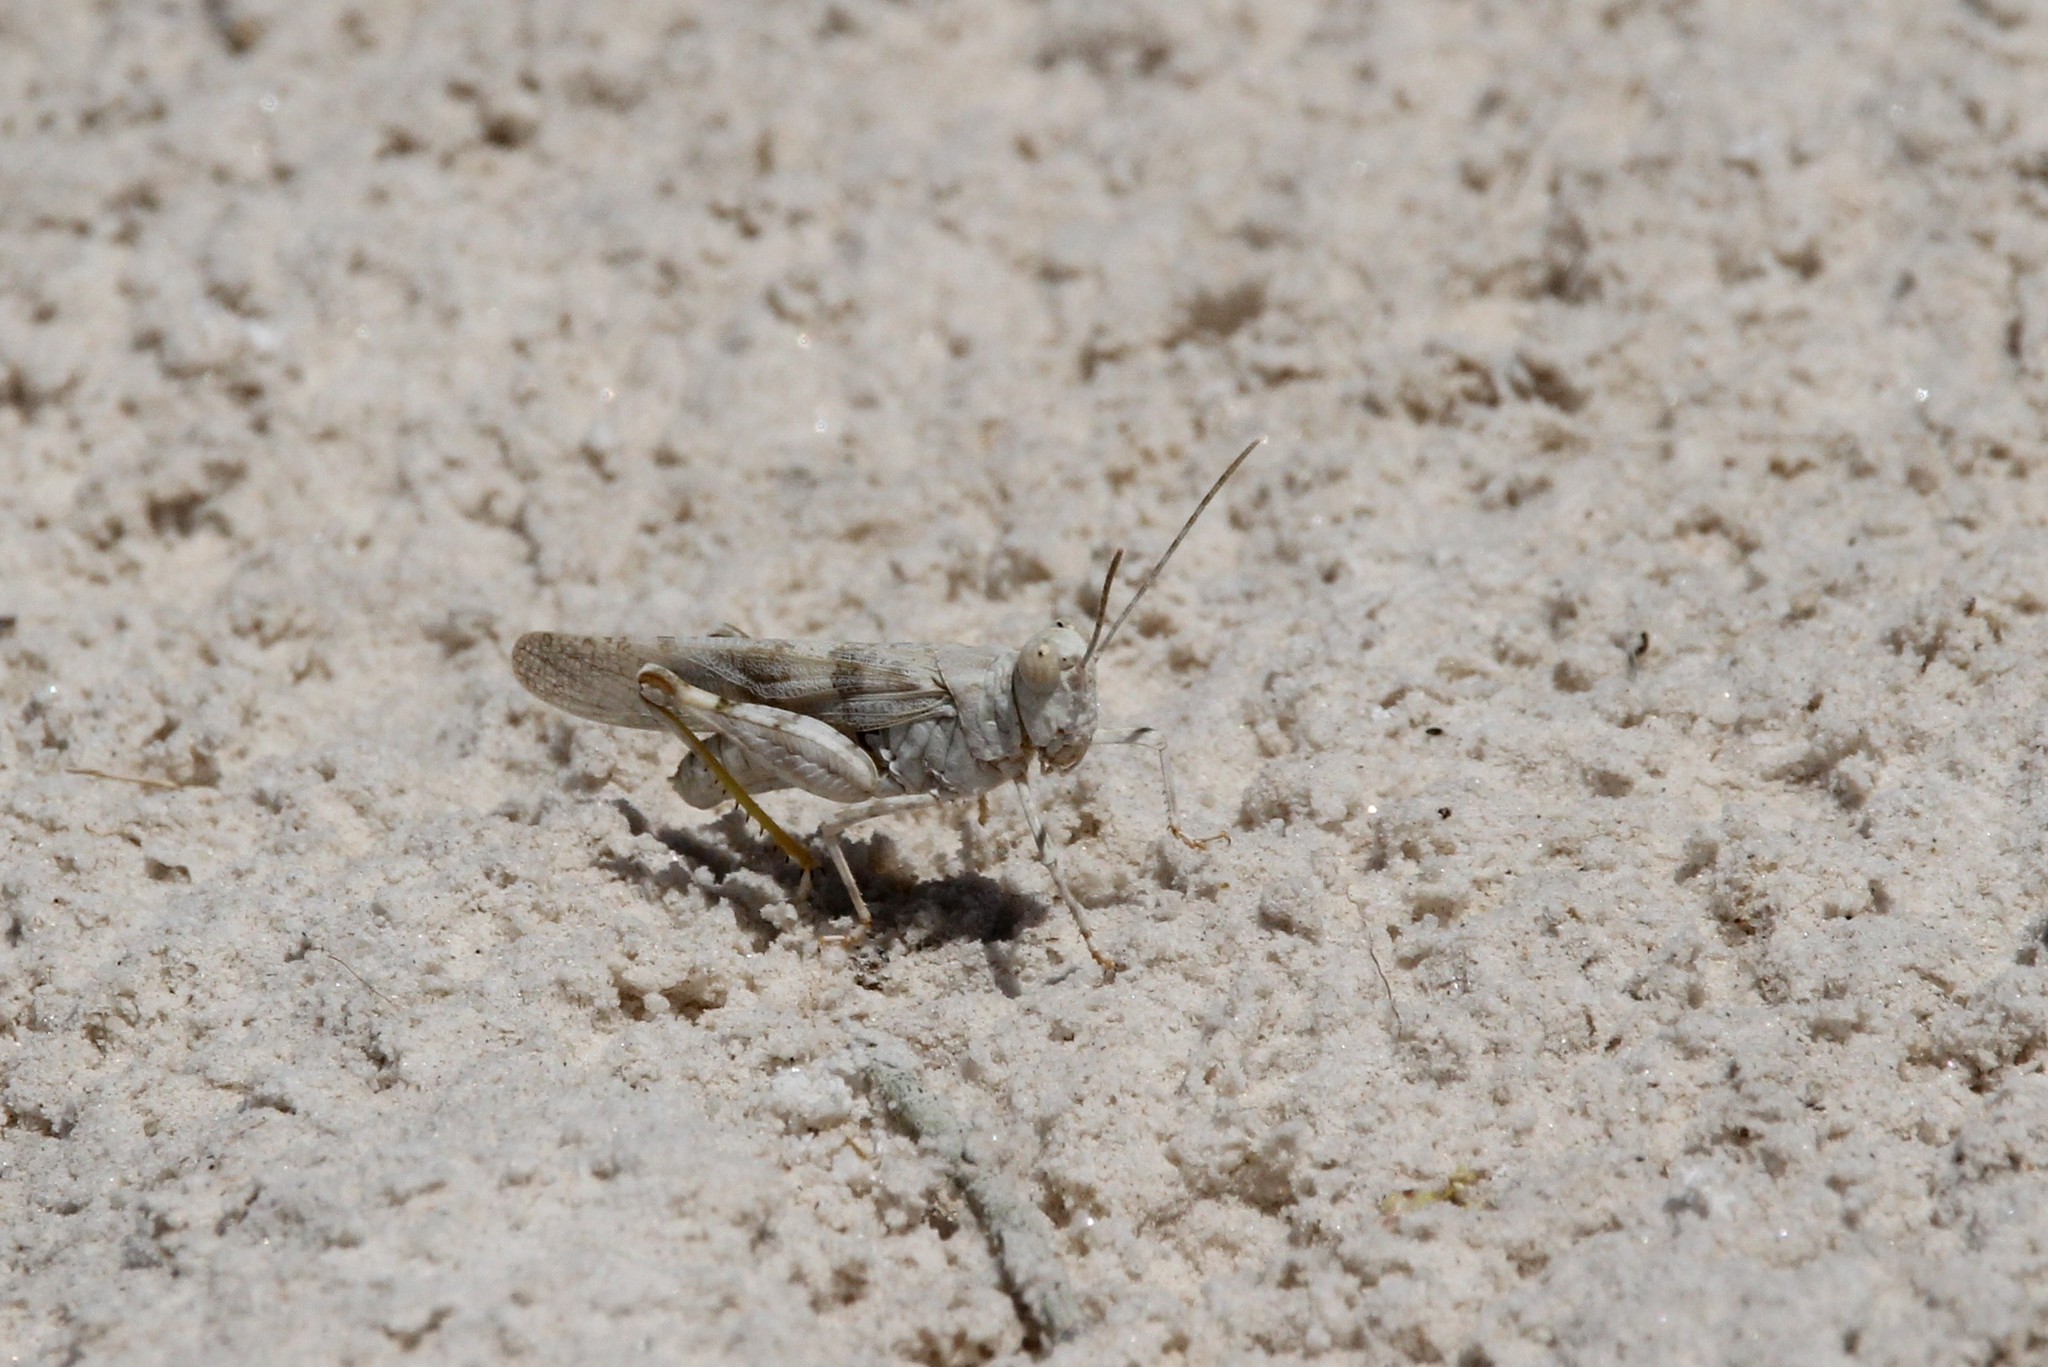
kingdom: Animalia
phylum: Arthropoda
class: Insecta
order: Orthoptera
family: Acrididae
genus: Trimerotropis
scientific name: Trimerotropis salina
